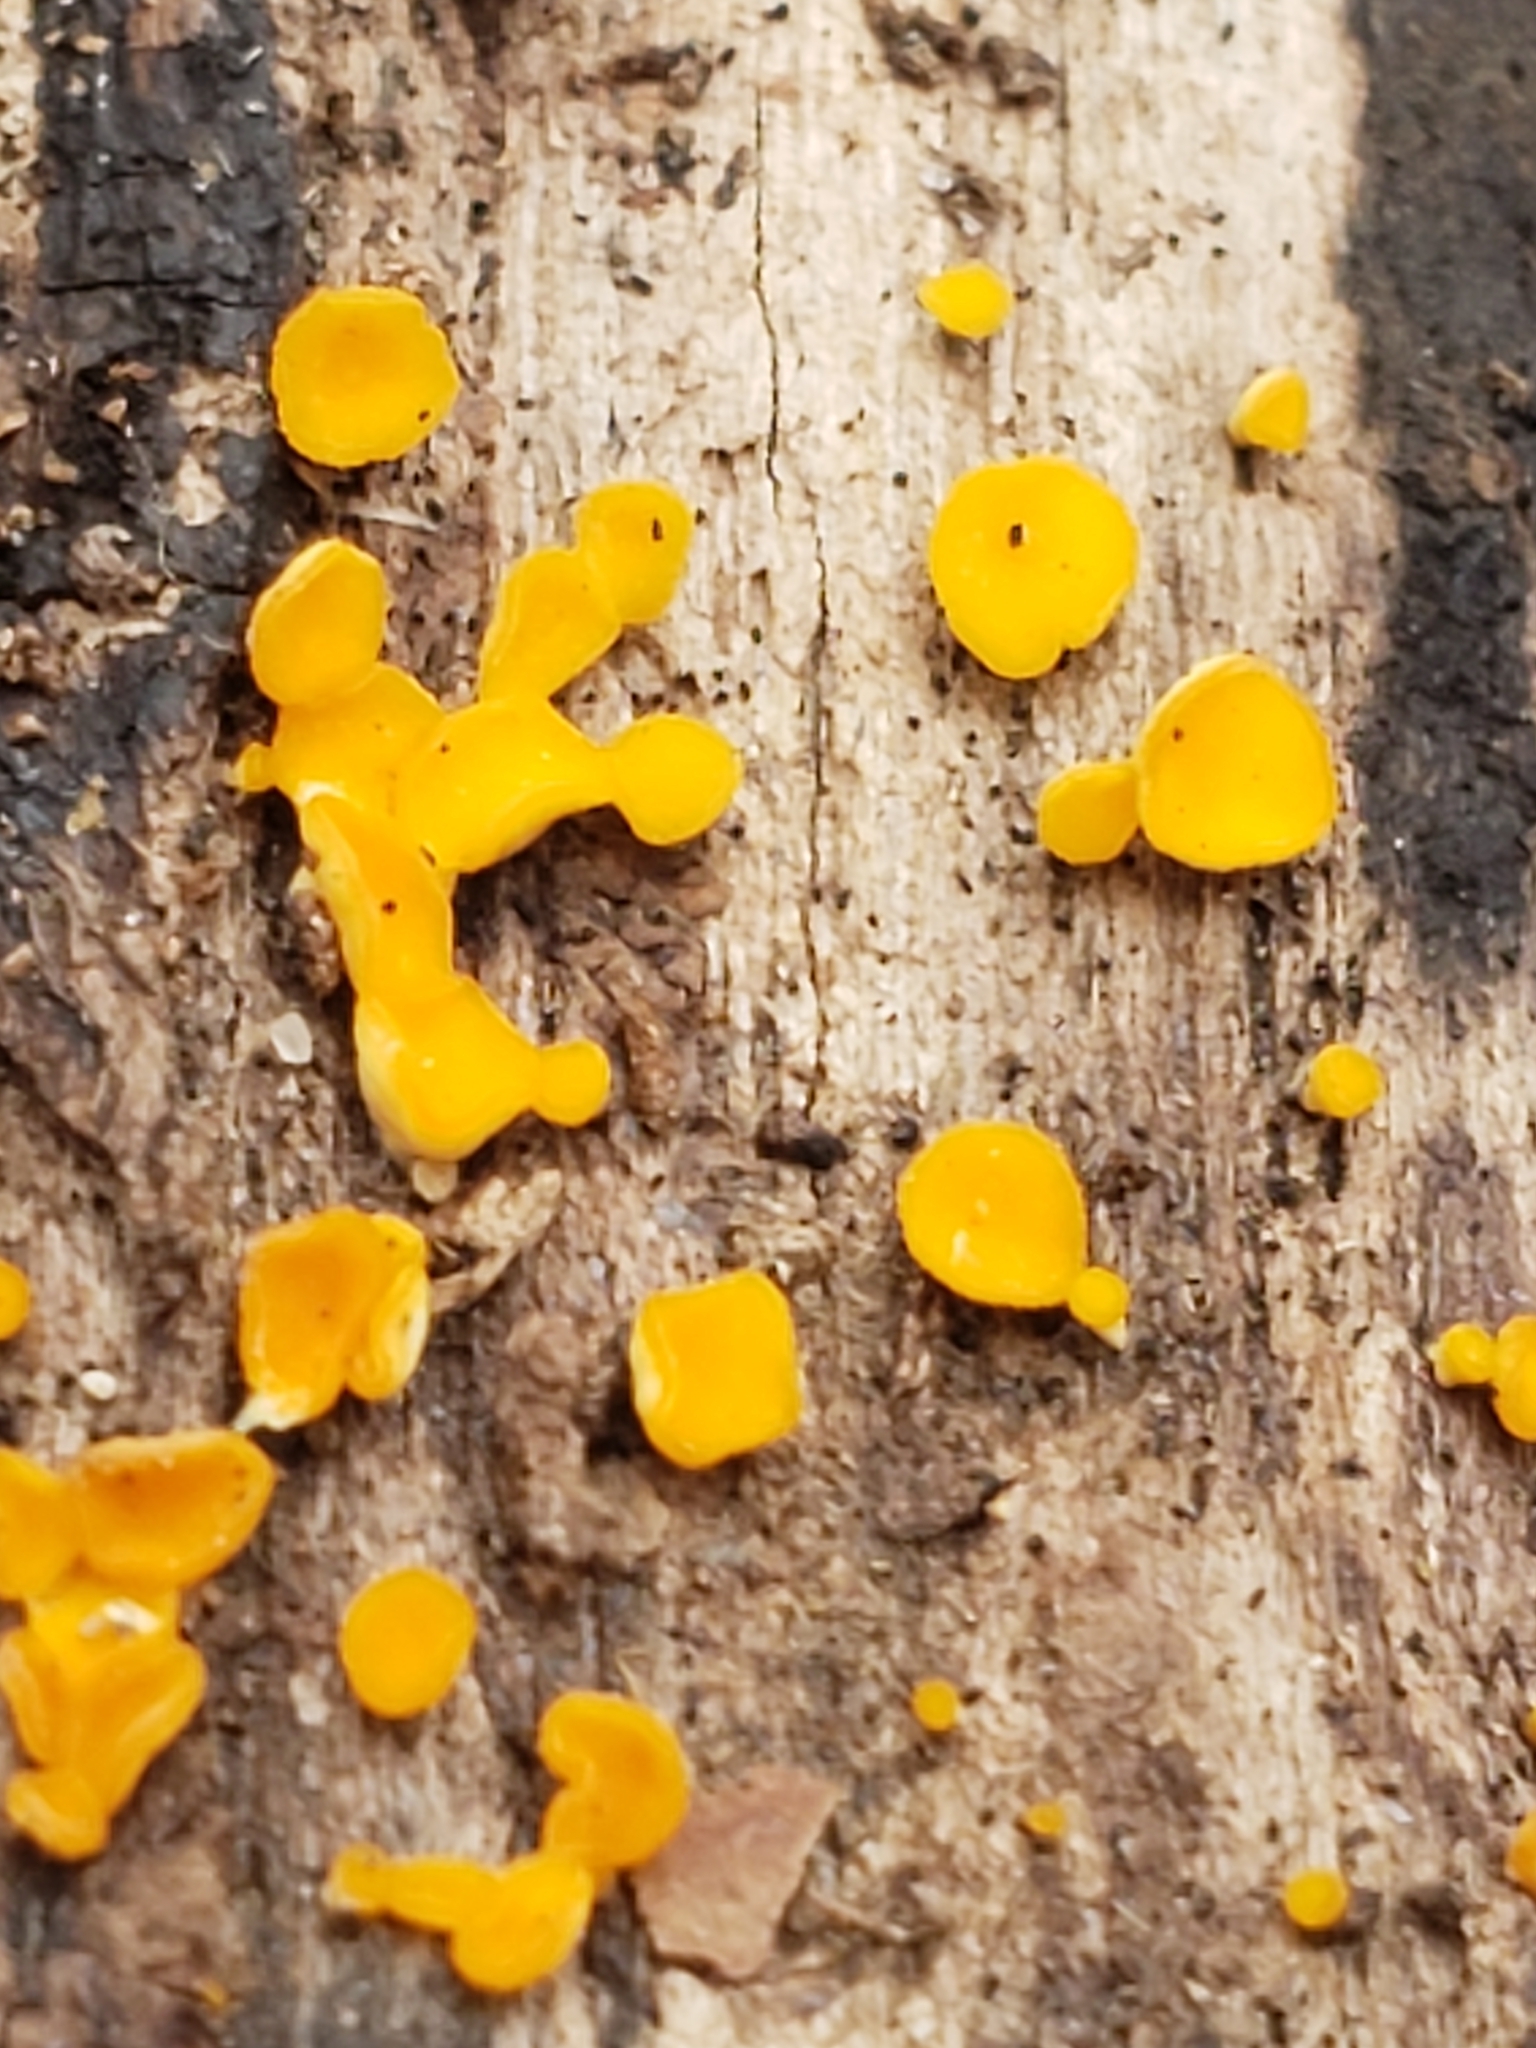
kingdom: Fungi
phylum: Ascomycota
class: Leotiomycetes
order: Helotiales
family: Pezizellaceae
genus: Calycina
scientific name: Calycina citrina
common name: Yellow fairy cups
